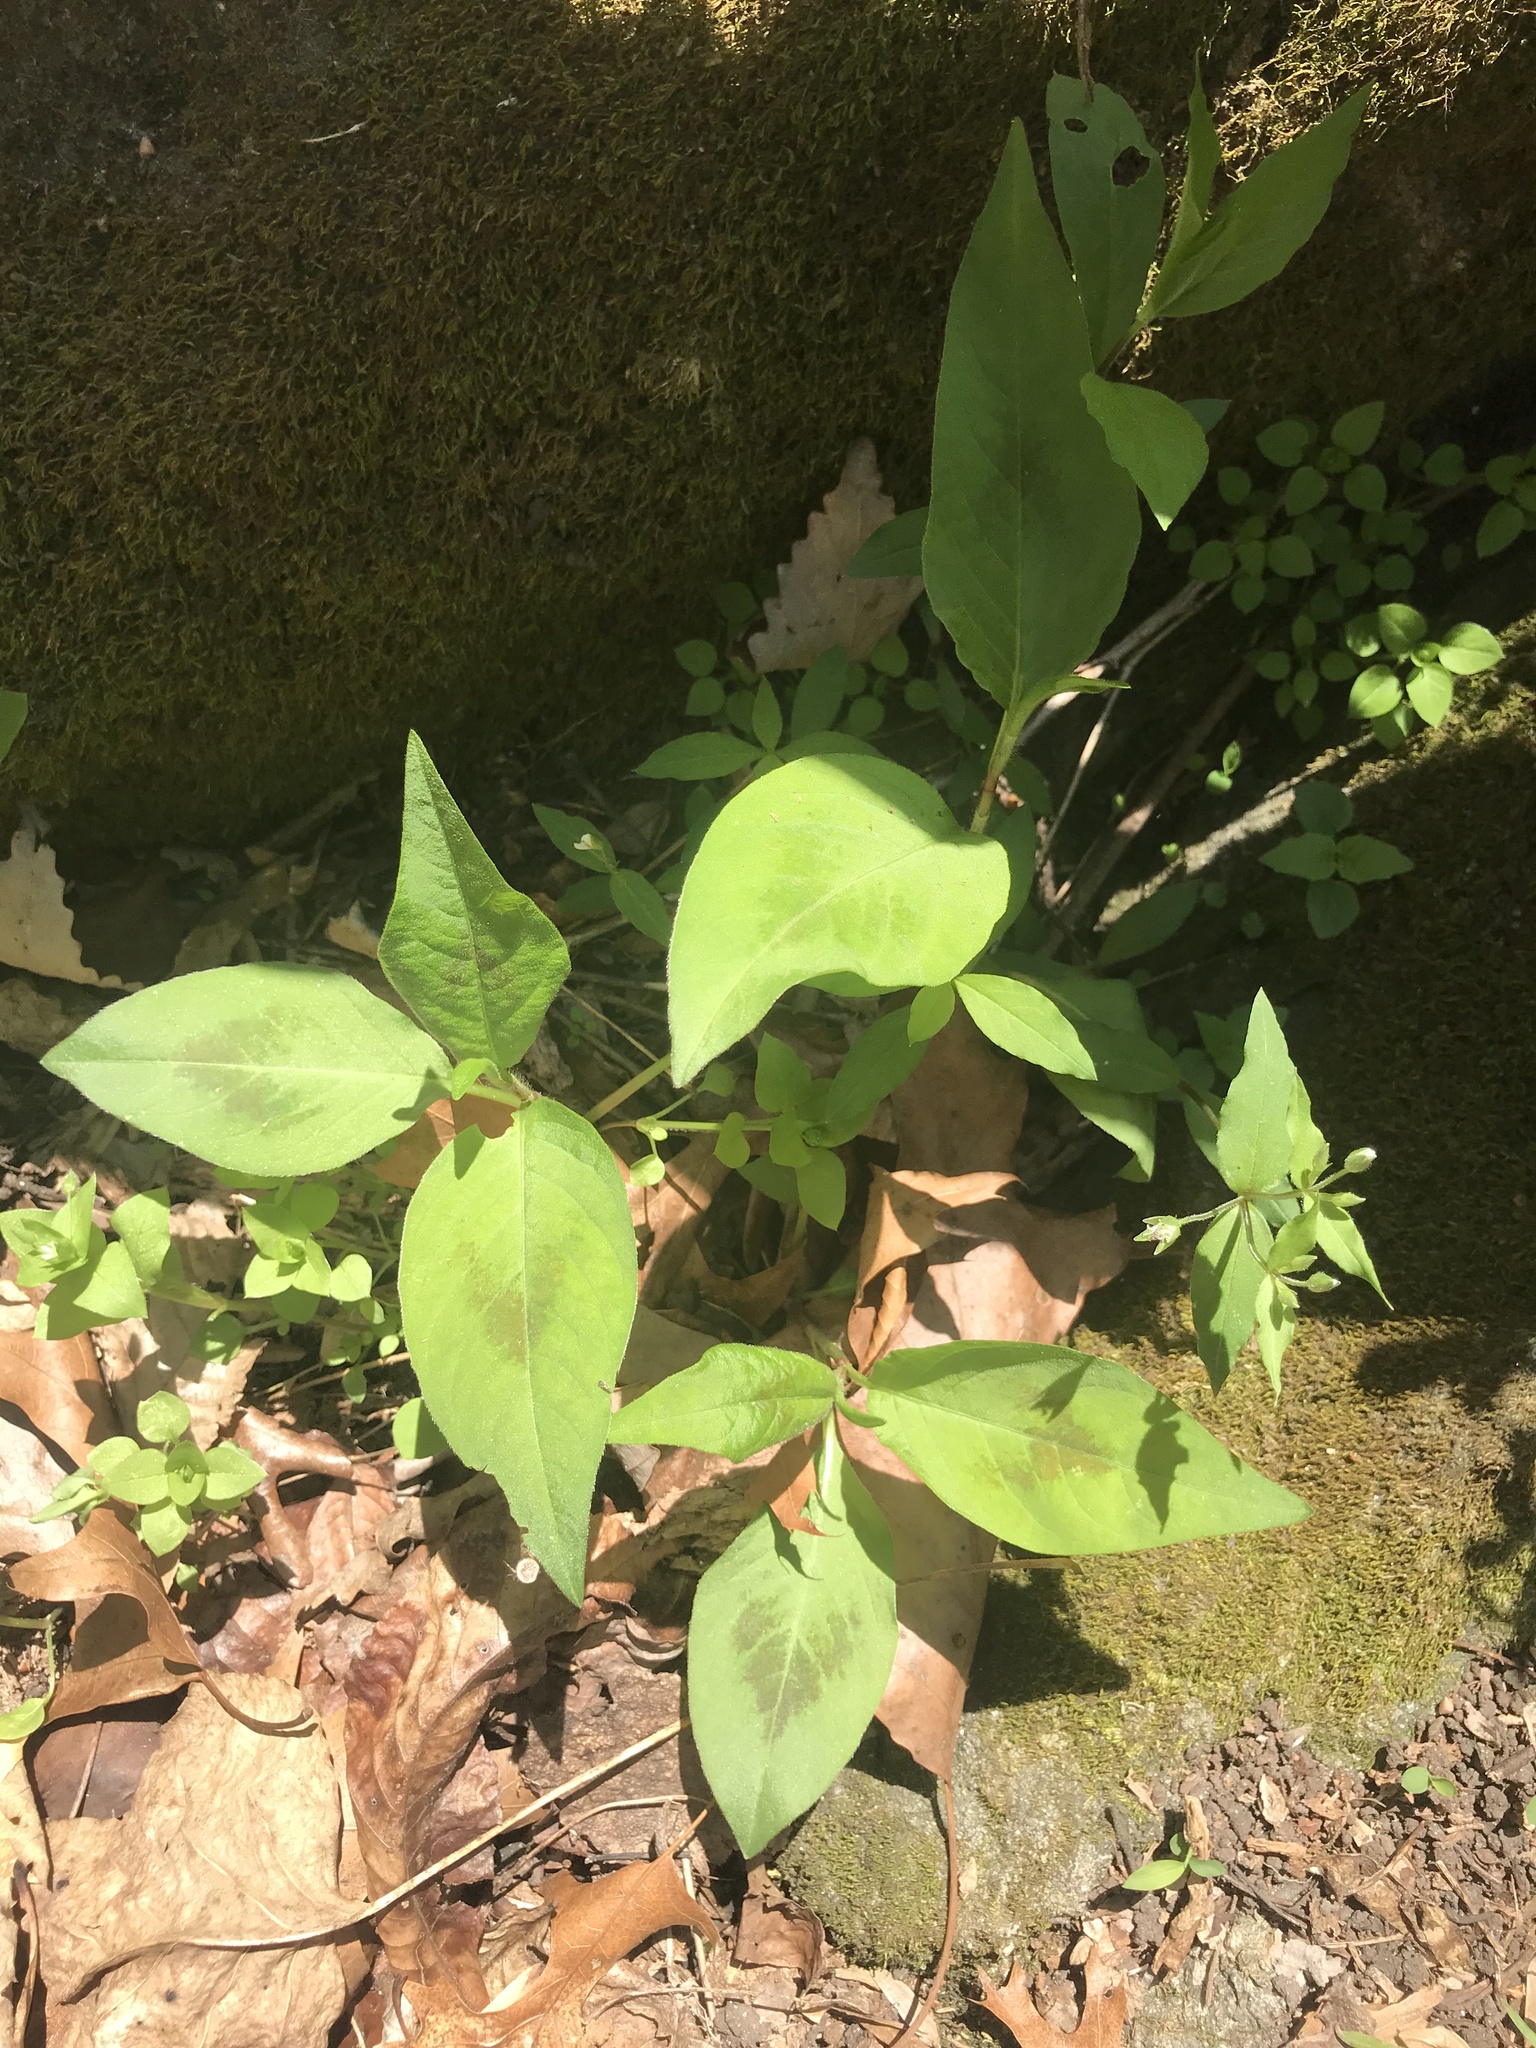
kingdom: Plantae
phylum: Tracheophyta
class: Magnoliopsida
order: Caryophyllales
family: Polygonaceae
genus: Persicaria
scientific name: Persicaria virginiana
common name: Jumpseed
